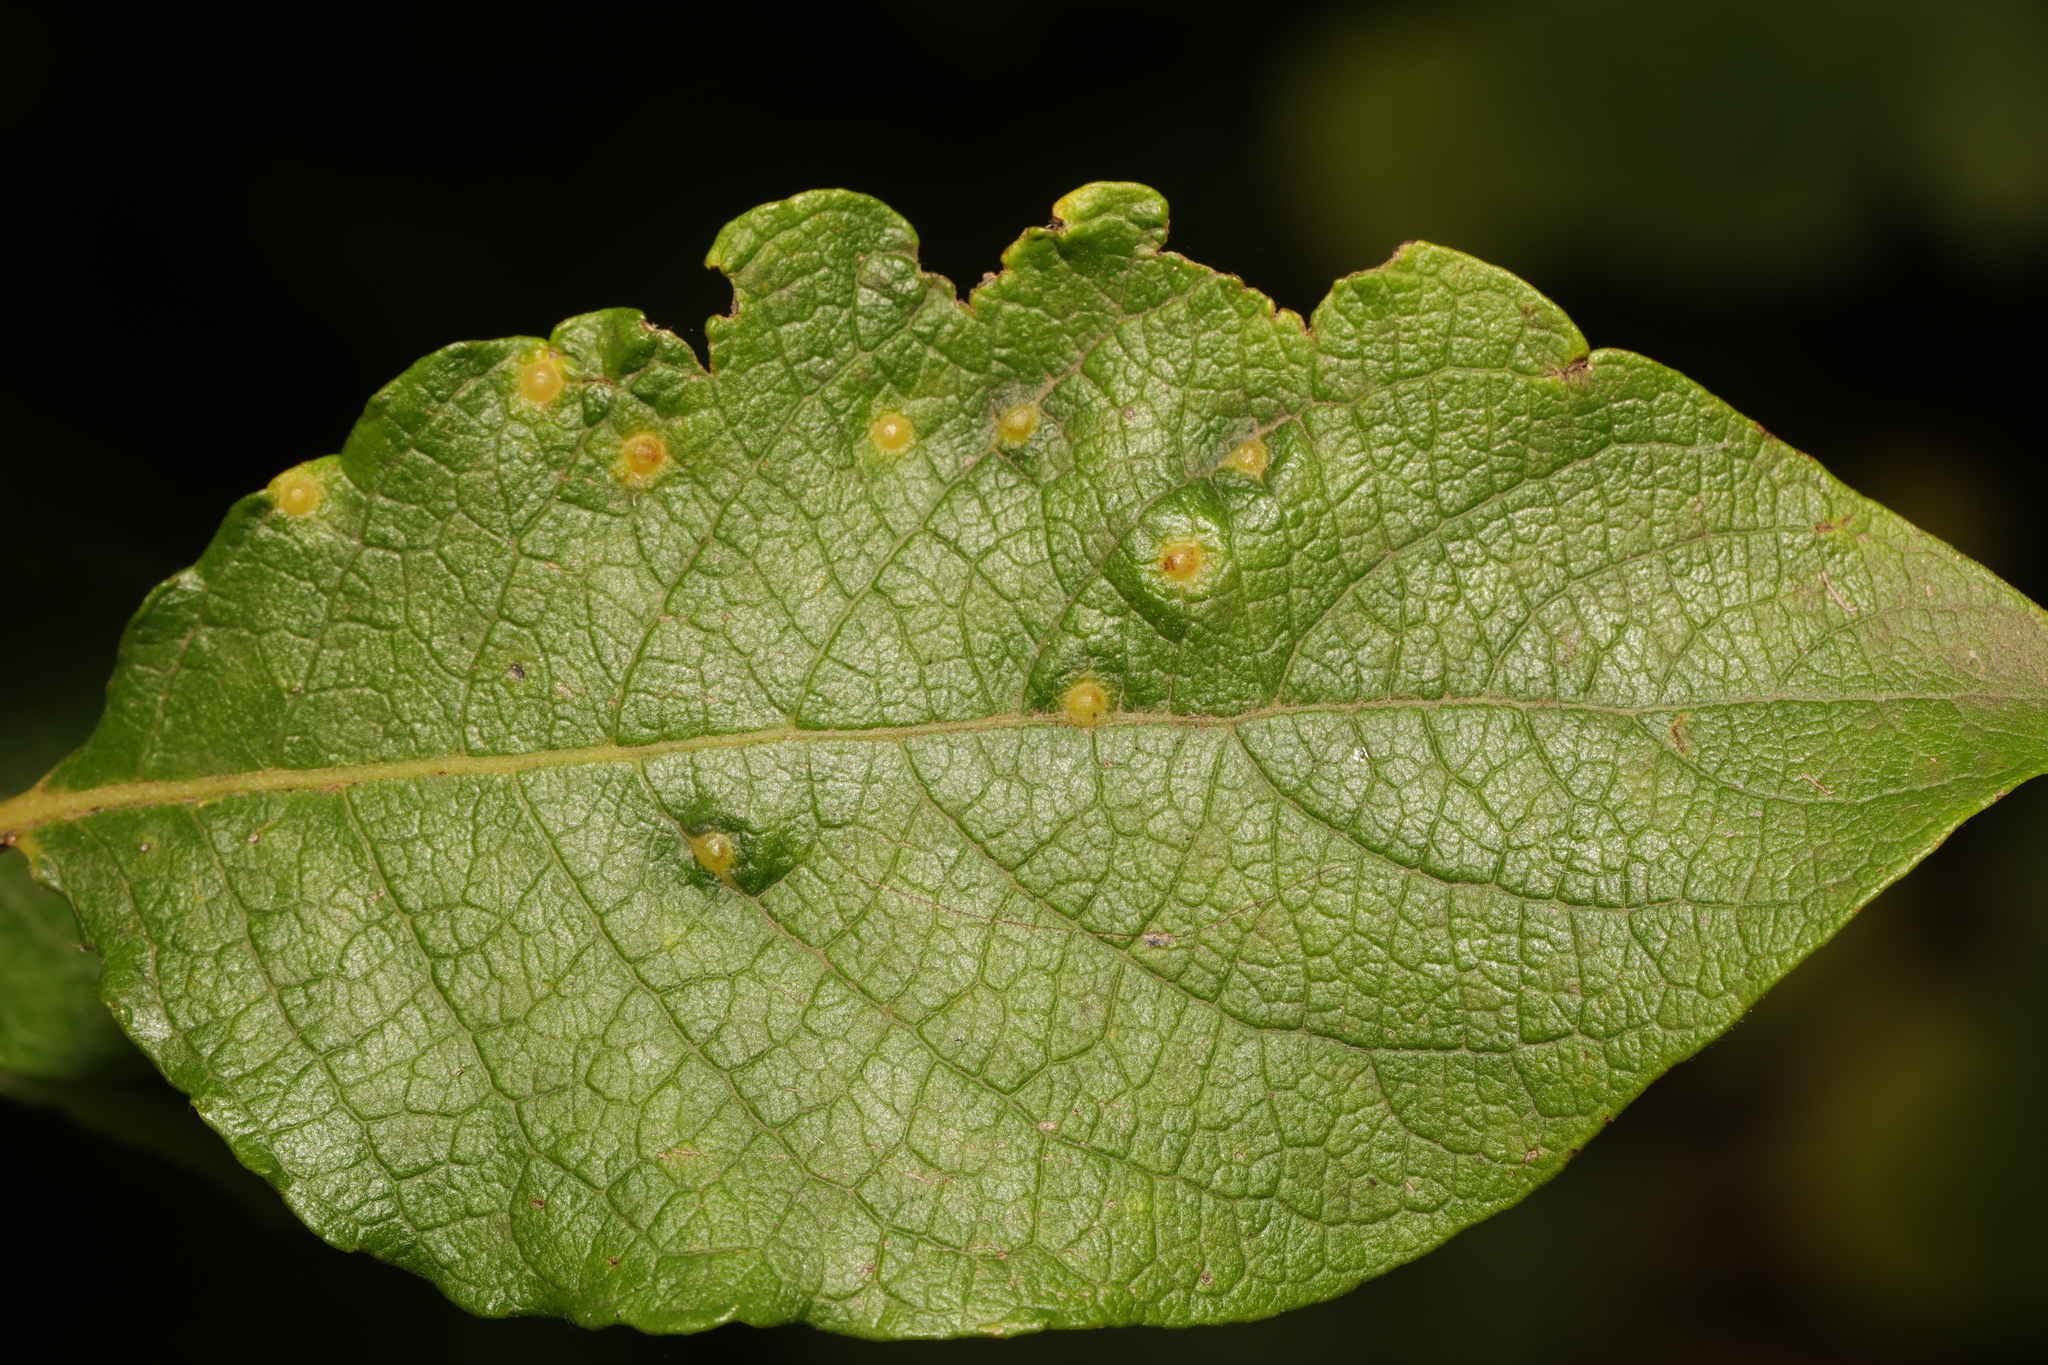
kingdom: Animalia
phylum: Arthropoda
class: Insecta
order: Diptera
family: Cecidomyiidae
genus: Iteomyia
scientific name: Iteomyia capreae
